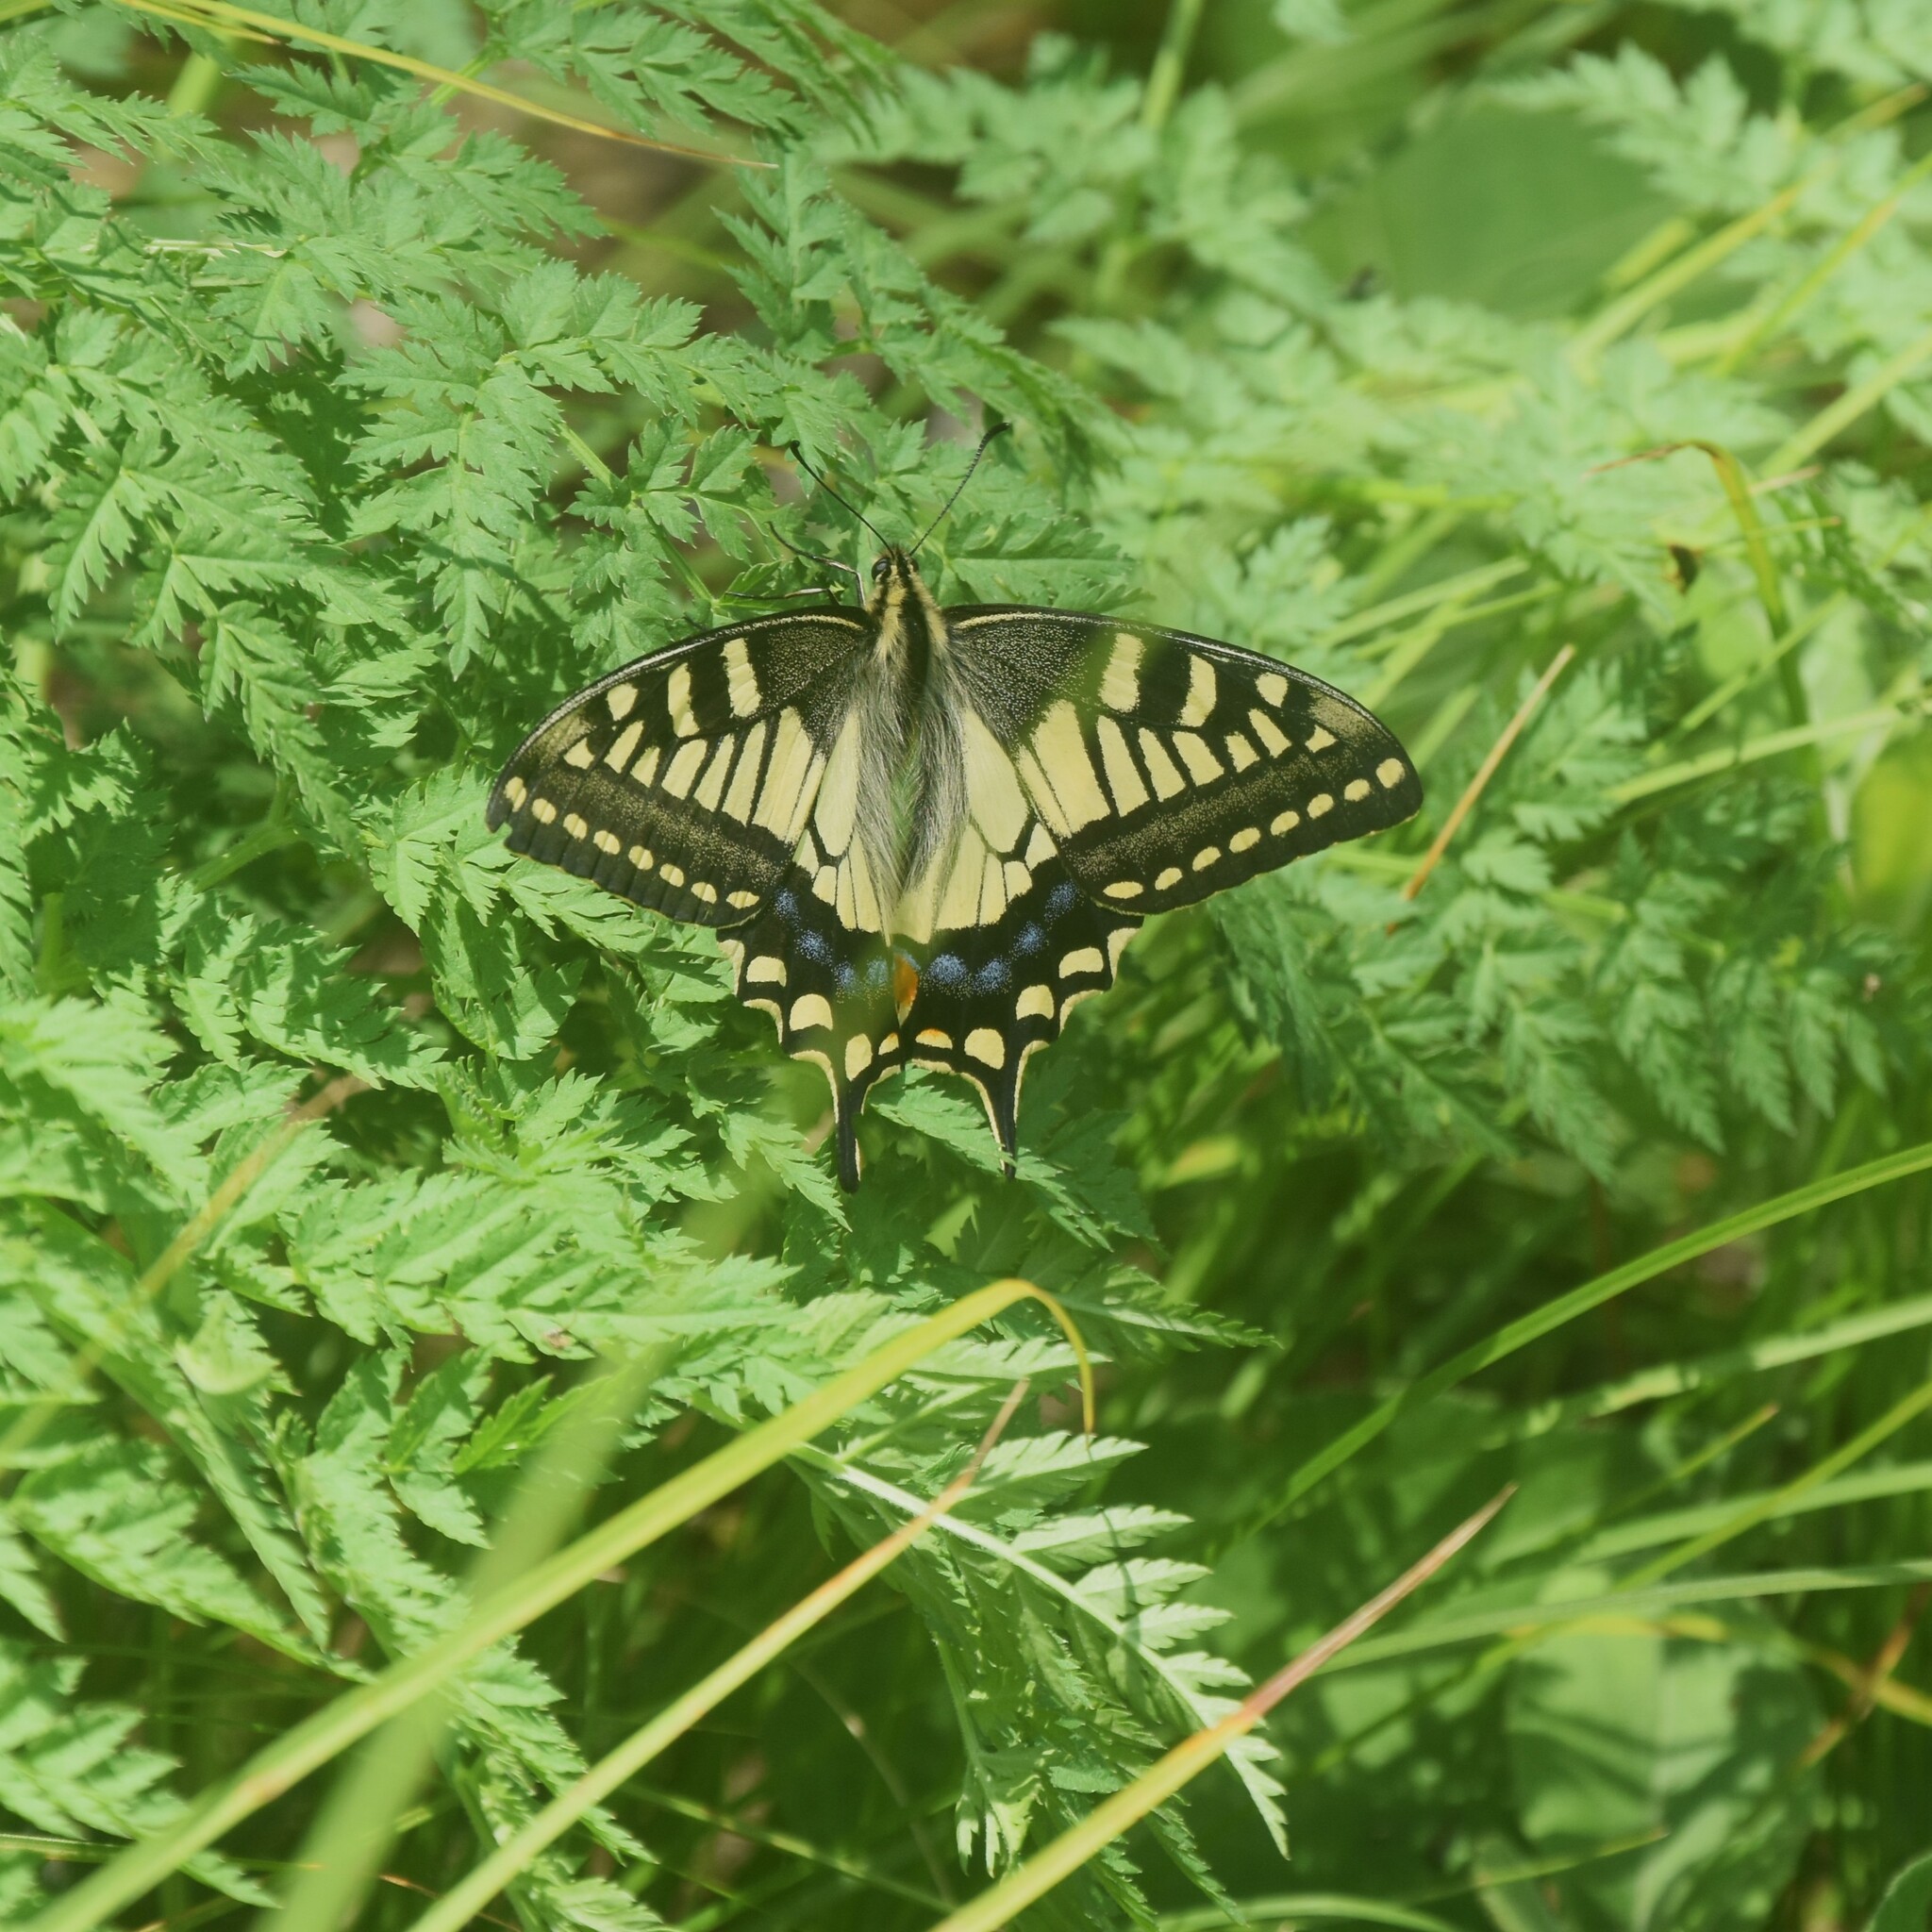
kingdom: Animalia
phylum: Arthropoda
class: Insecta
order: Lepidoptera
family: Papilionidae
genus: Papilio
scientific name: Papilio machaon
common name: Swallowtail
